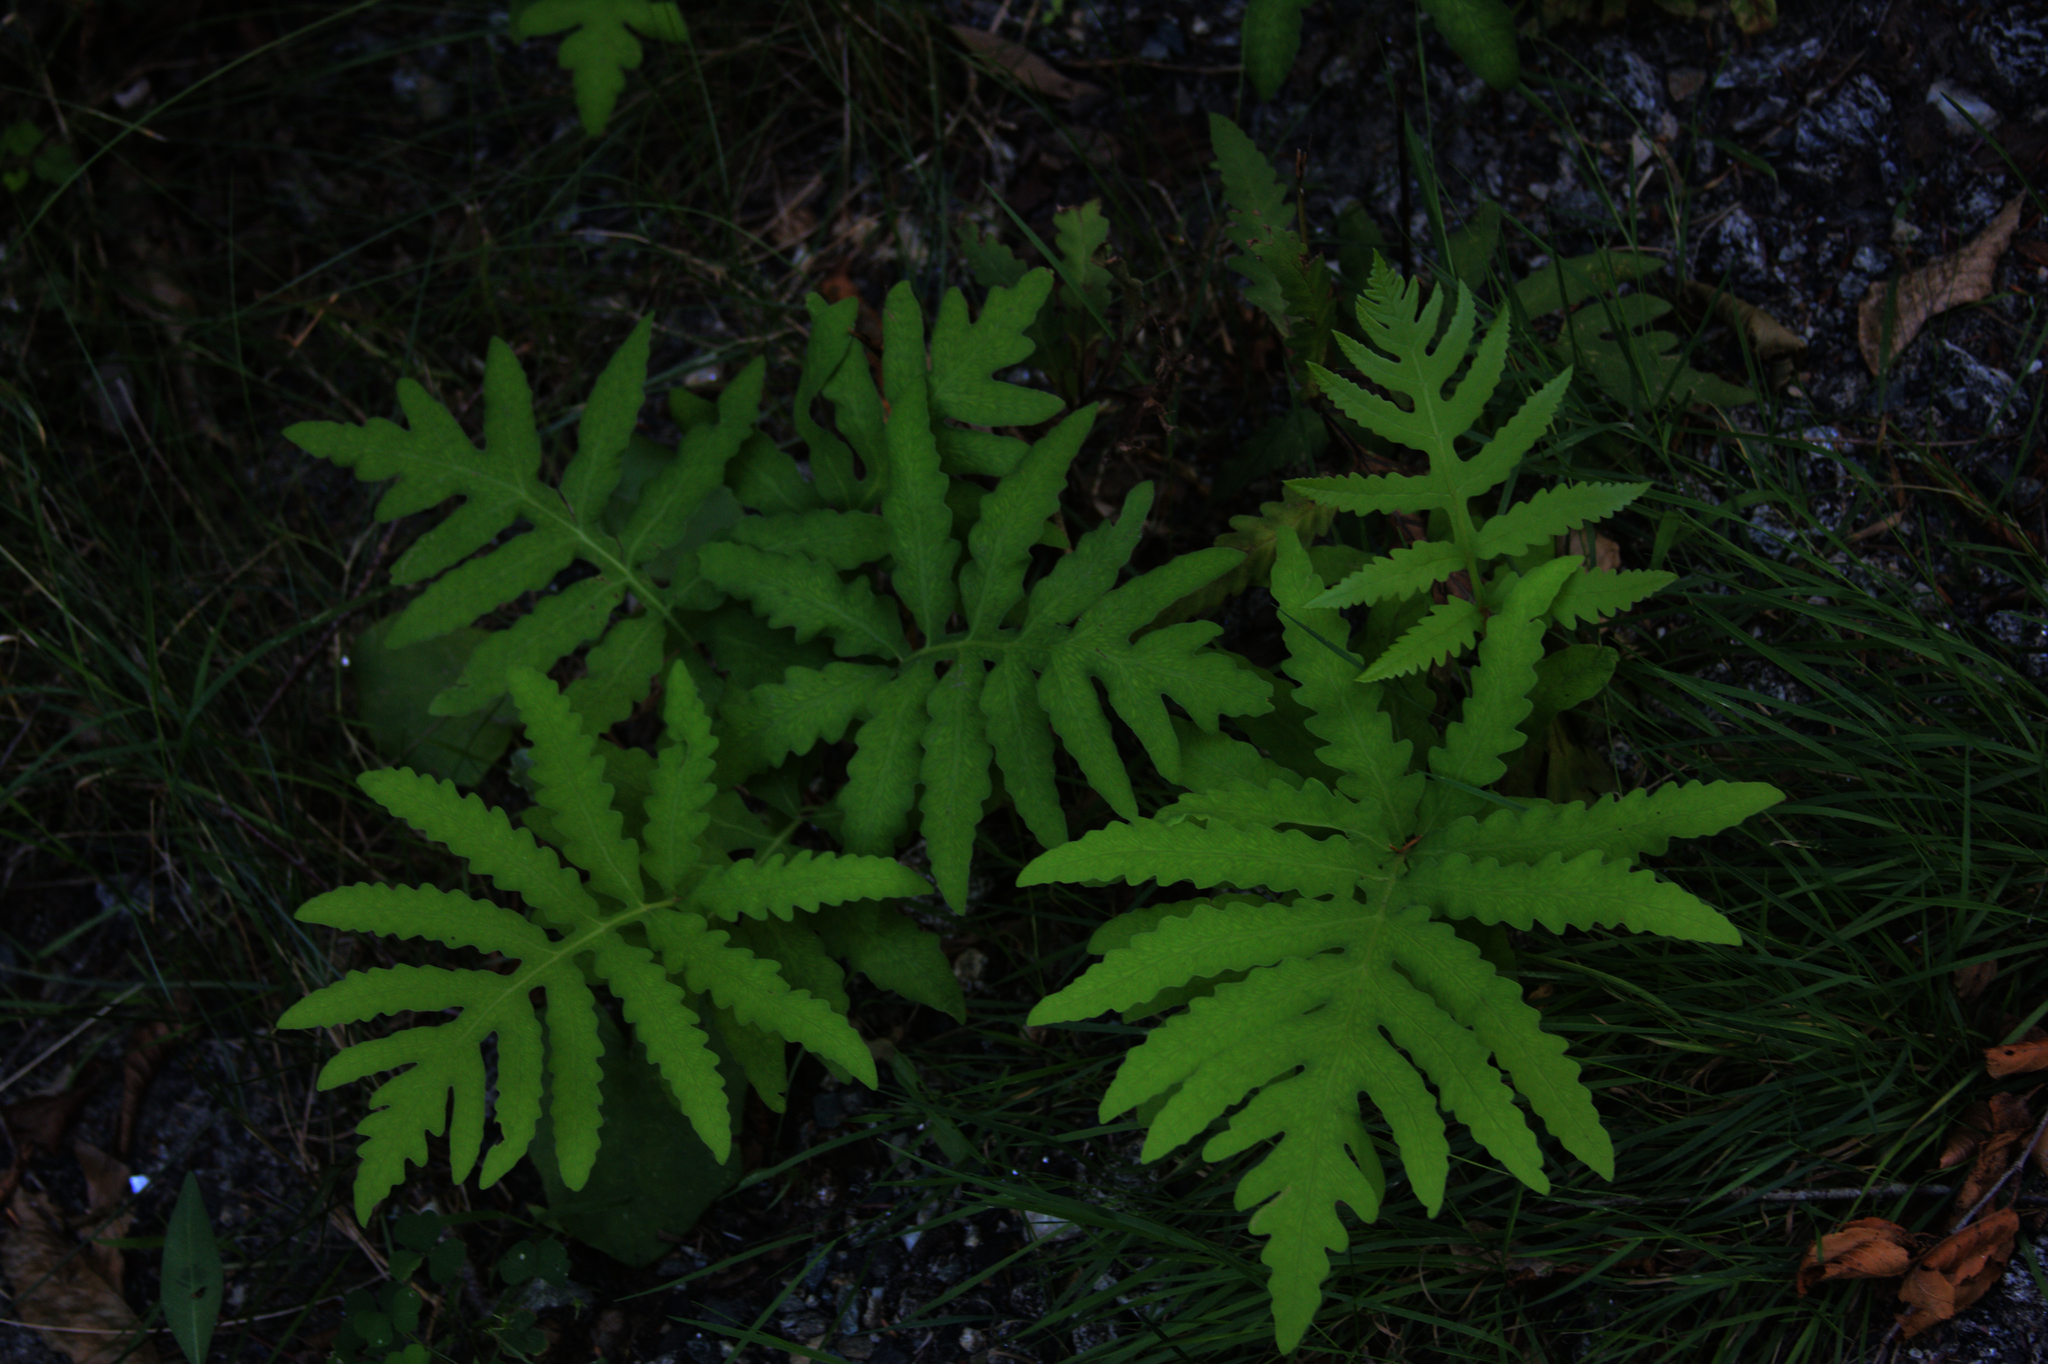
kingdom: Plantae
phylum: Tracheophyta
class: Polypodiopsida
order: Polypodiales
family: Onocleaceae
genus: Onoclea
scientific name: Onoclea sensibilis
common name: Sensitive fern
